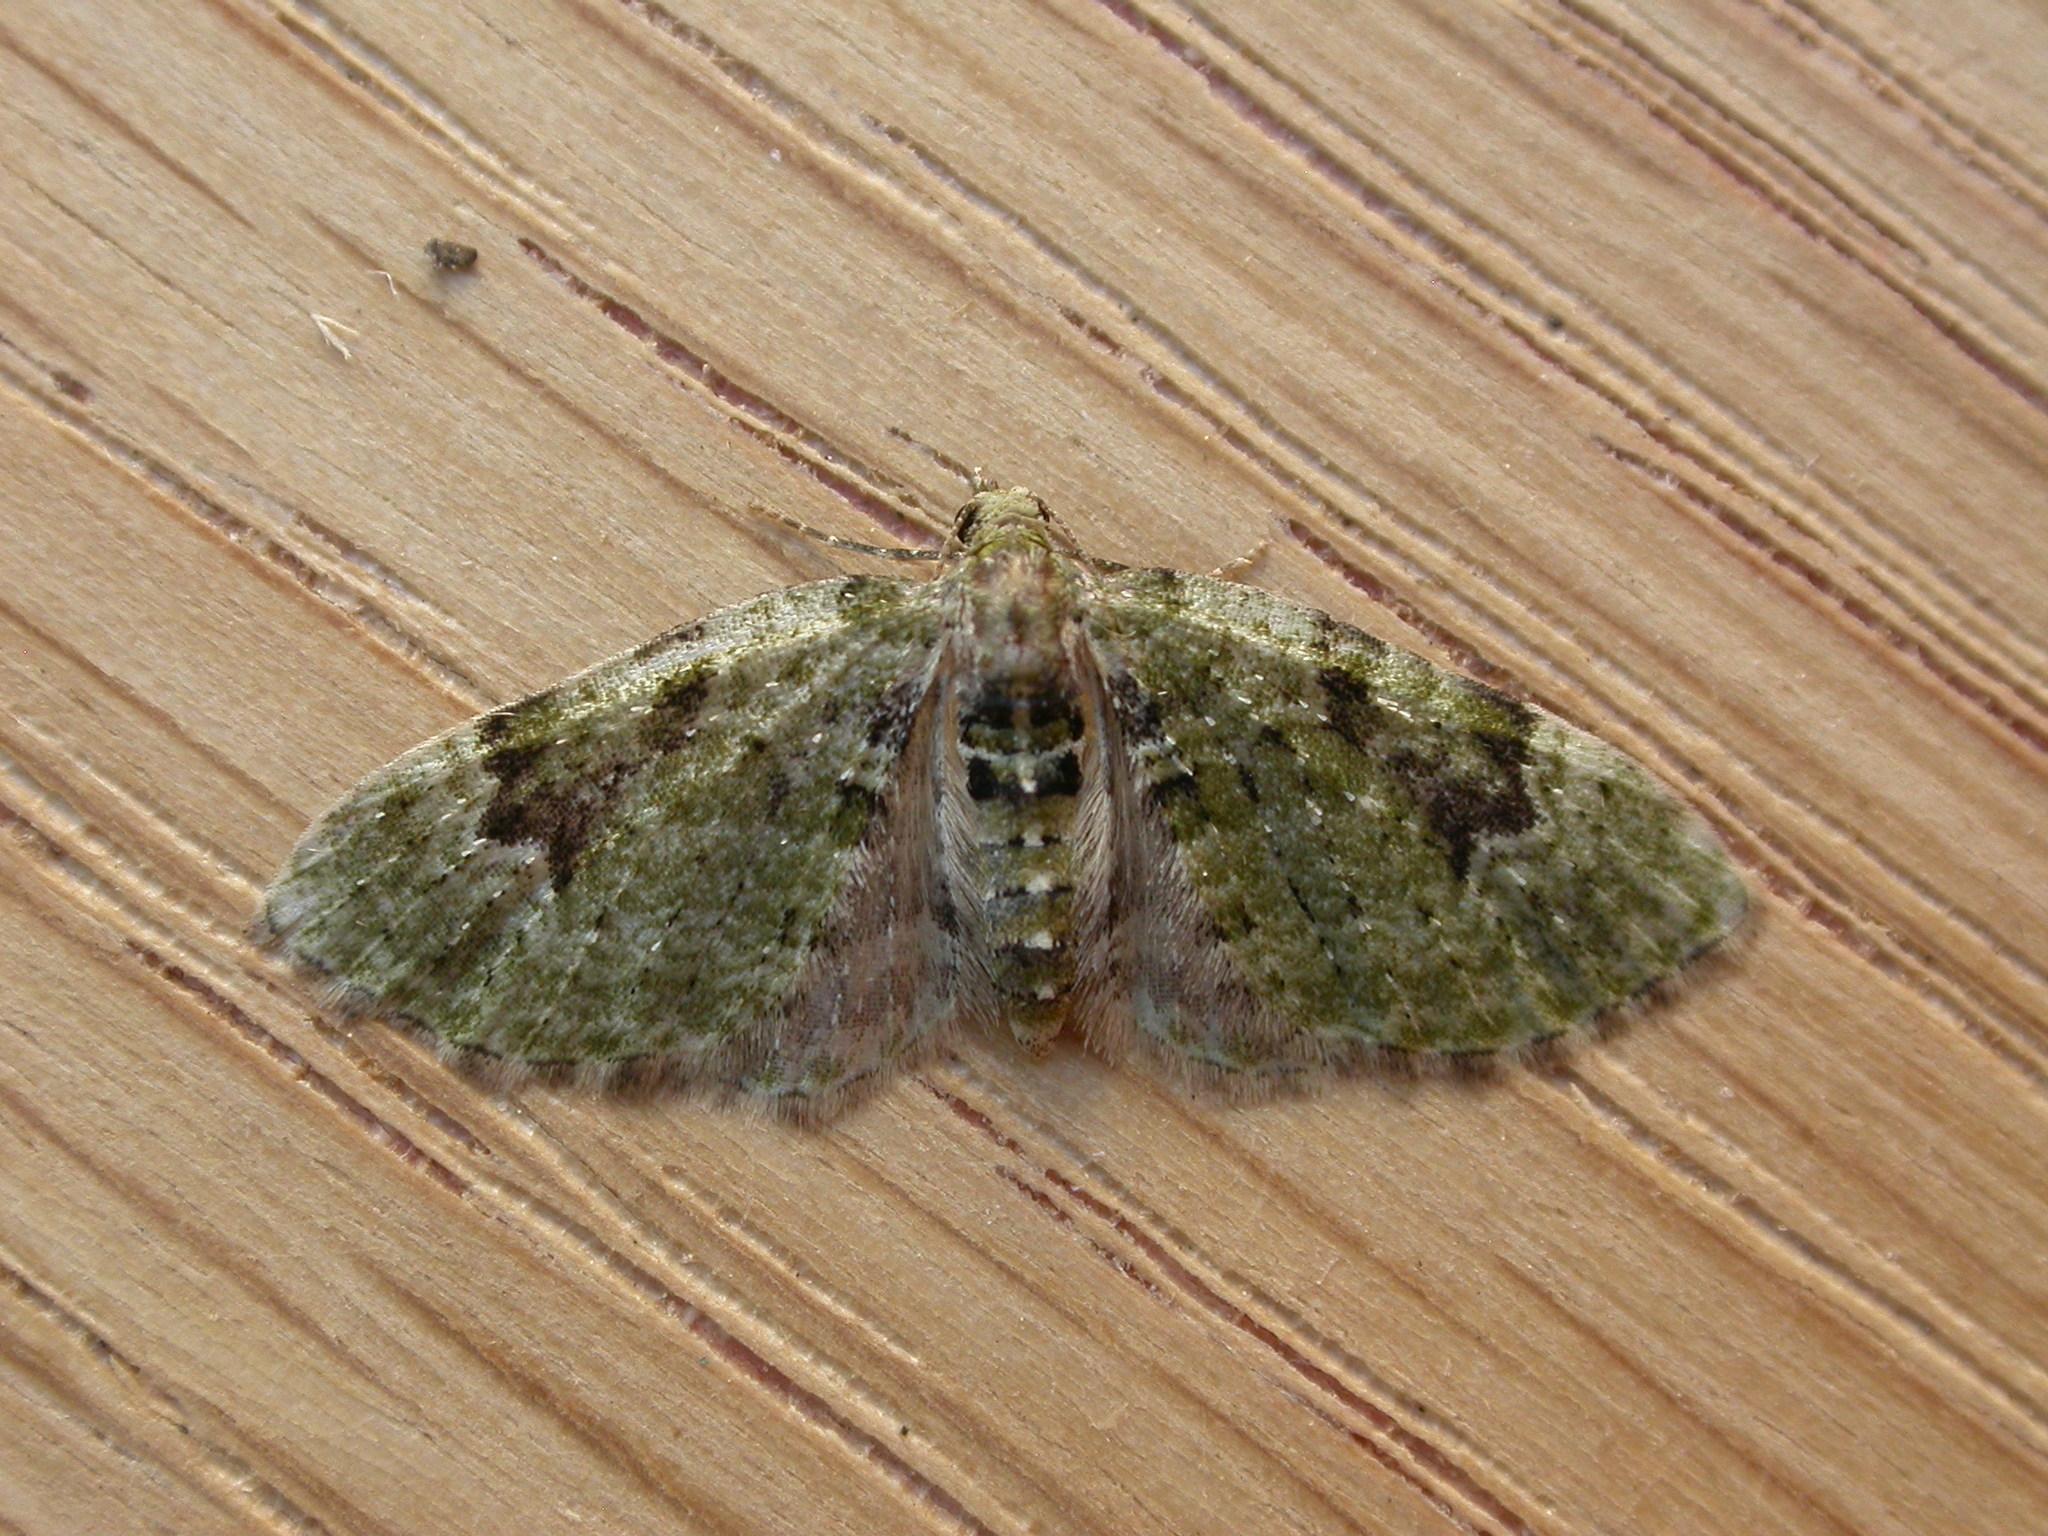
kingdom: Animalia
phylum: Arthropoda
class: Insecta
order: Lepidoptera
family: Geometridae
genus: Chloroclystis
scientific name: Chloroclystis v-ata
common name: V-pug
